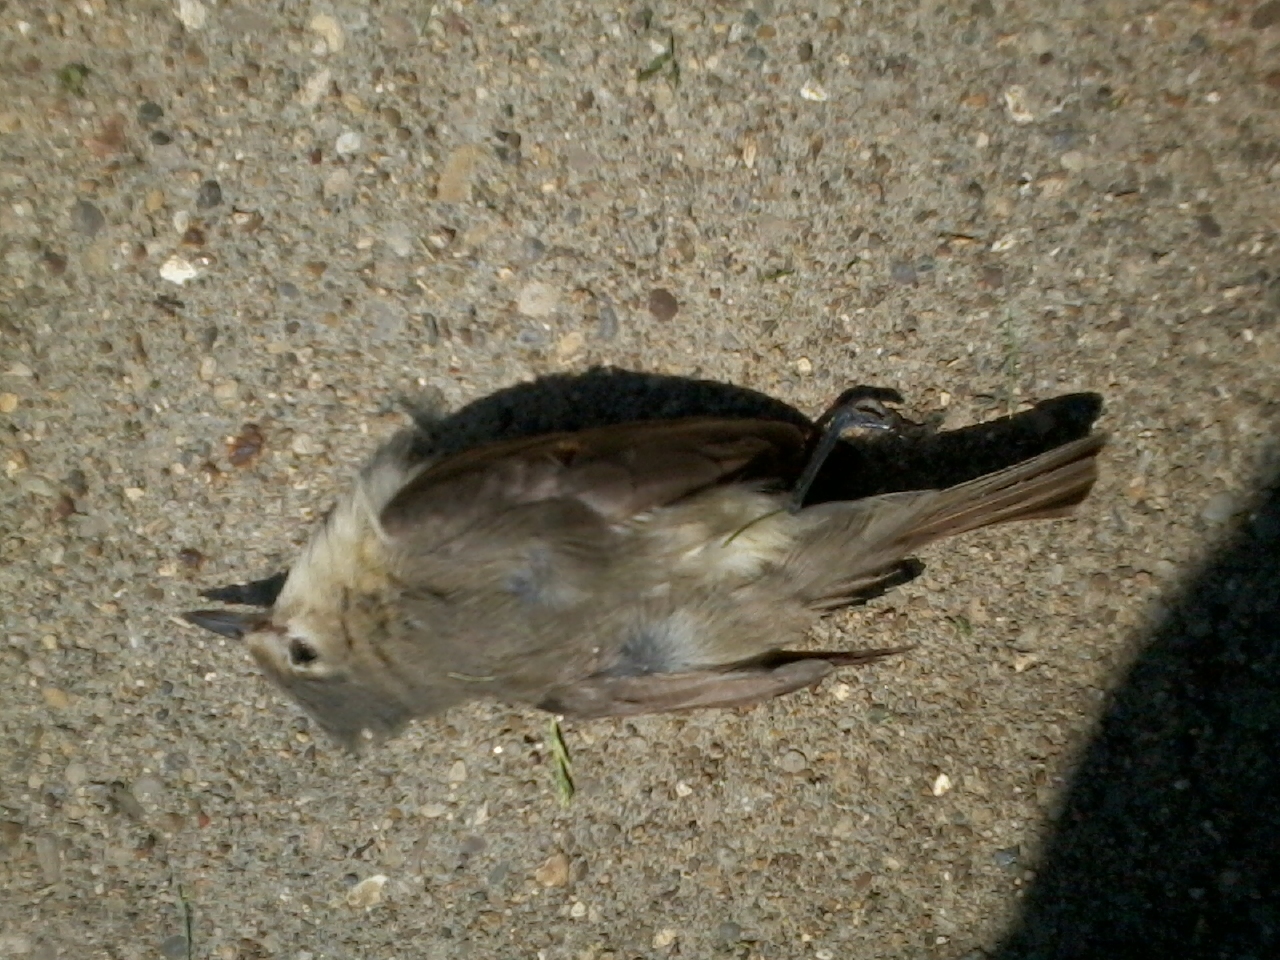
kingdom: Animalia
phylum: Chordata
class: Aves
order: Passeriformes
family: Vireonidae
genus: Vireo
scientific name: Vireo gilvus
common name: Warbling vireo
